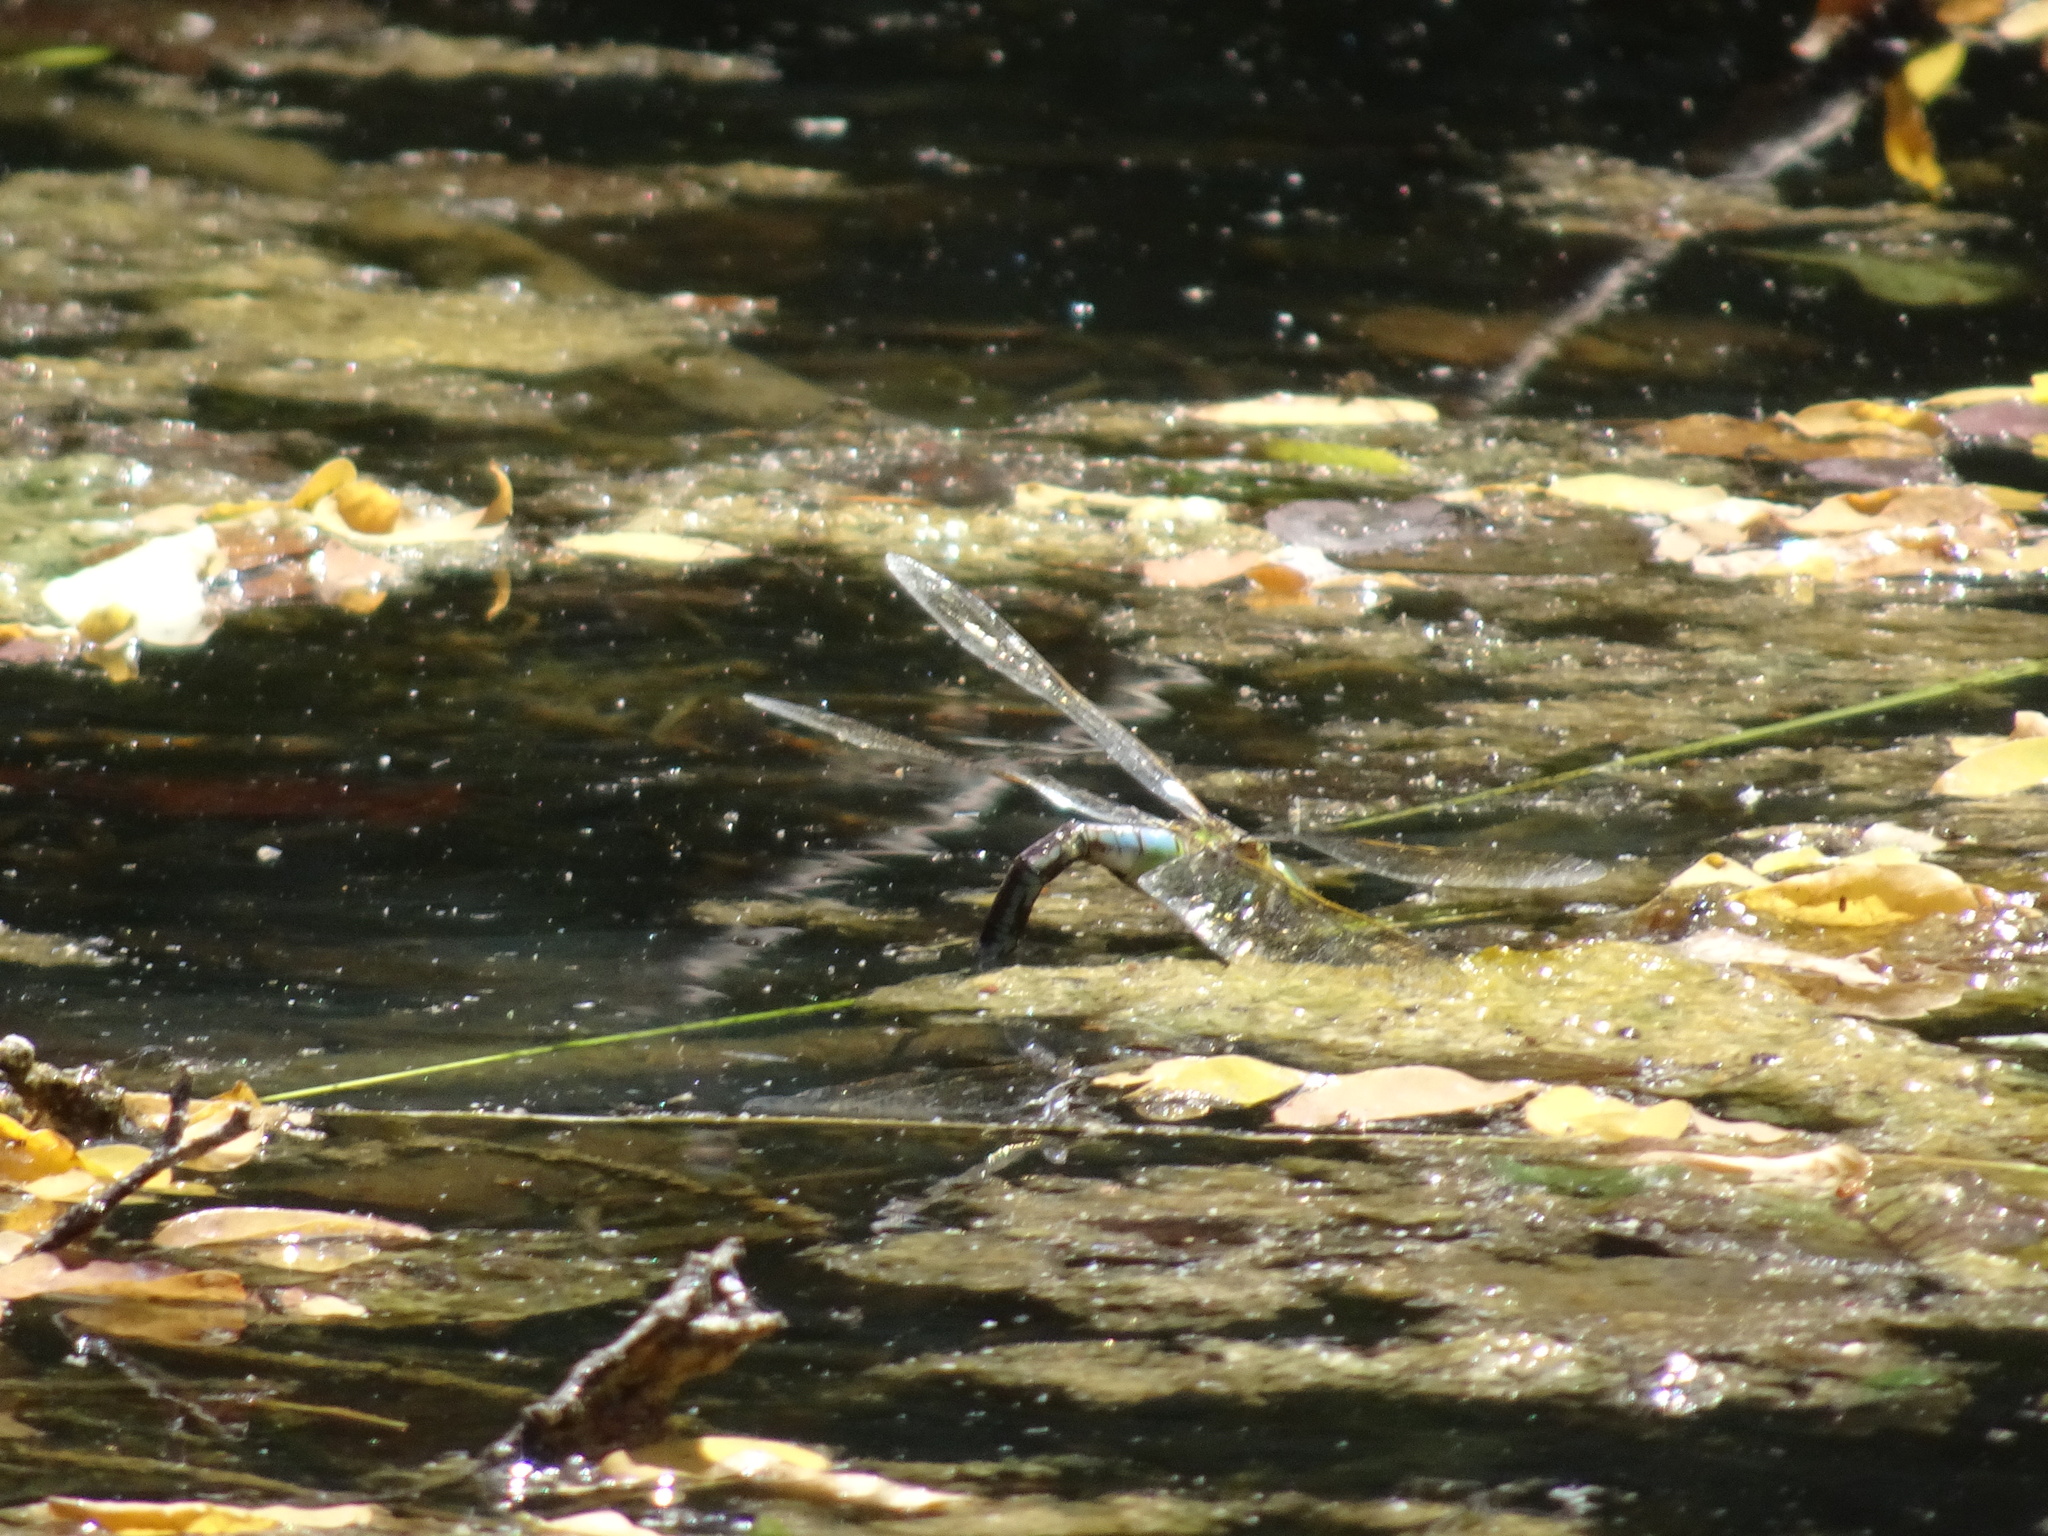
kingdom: Animalia
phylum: Arthropoda
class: Insecta
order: Odonata
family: Aeshnidae
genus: Anax
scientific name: Anax imperator
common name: Emperor dragonfly
